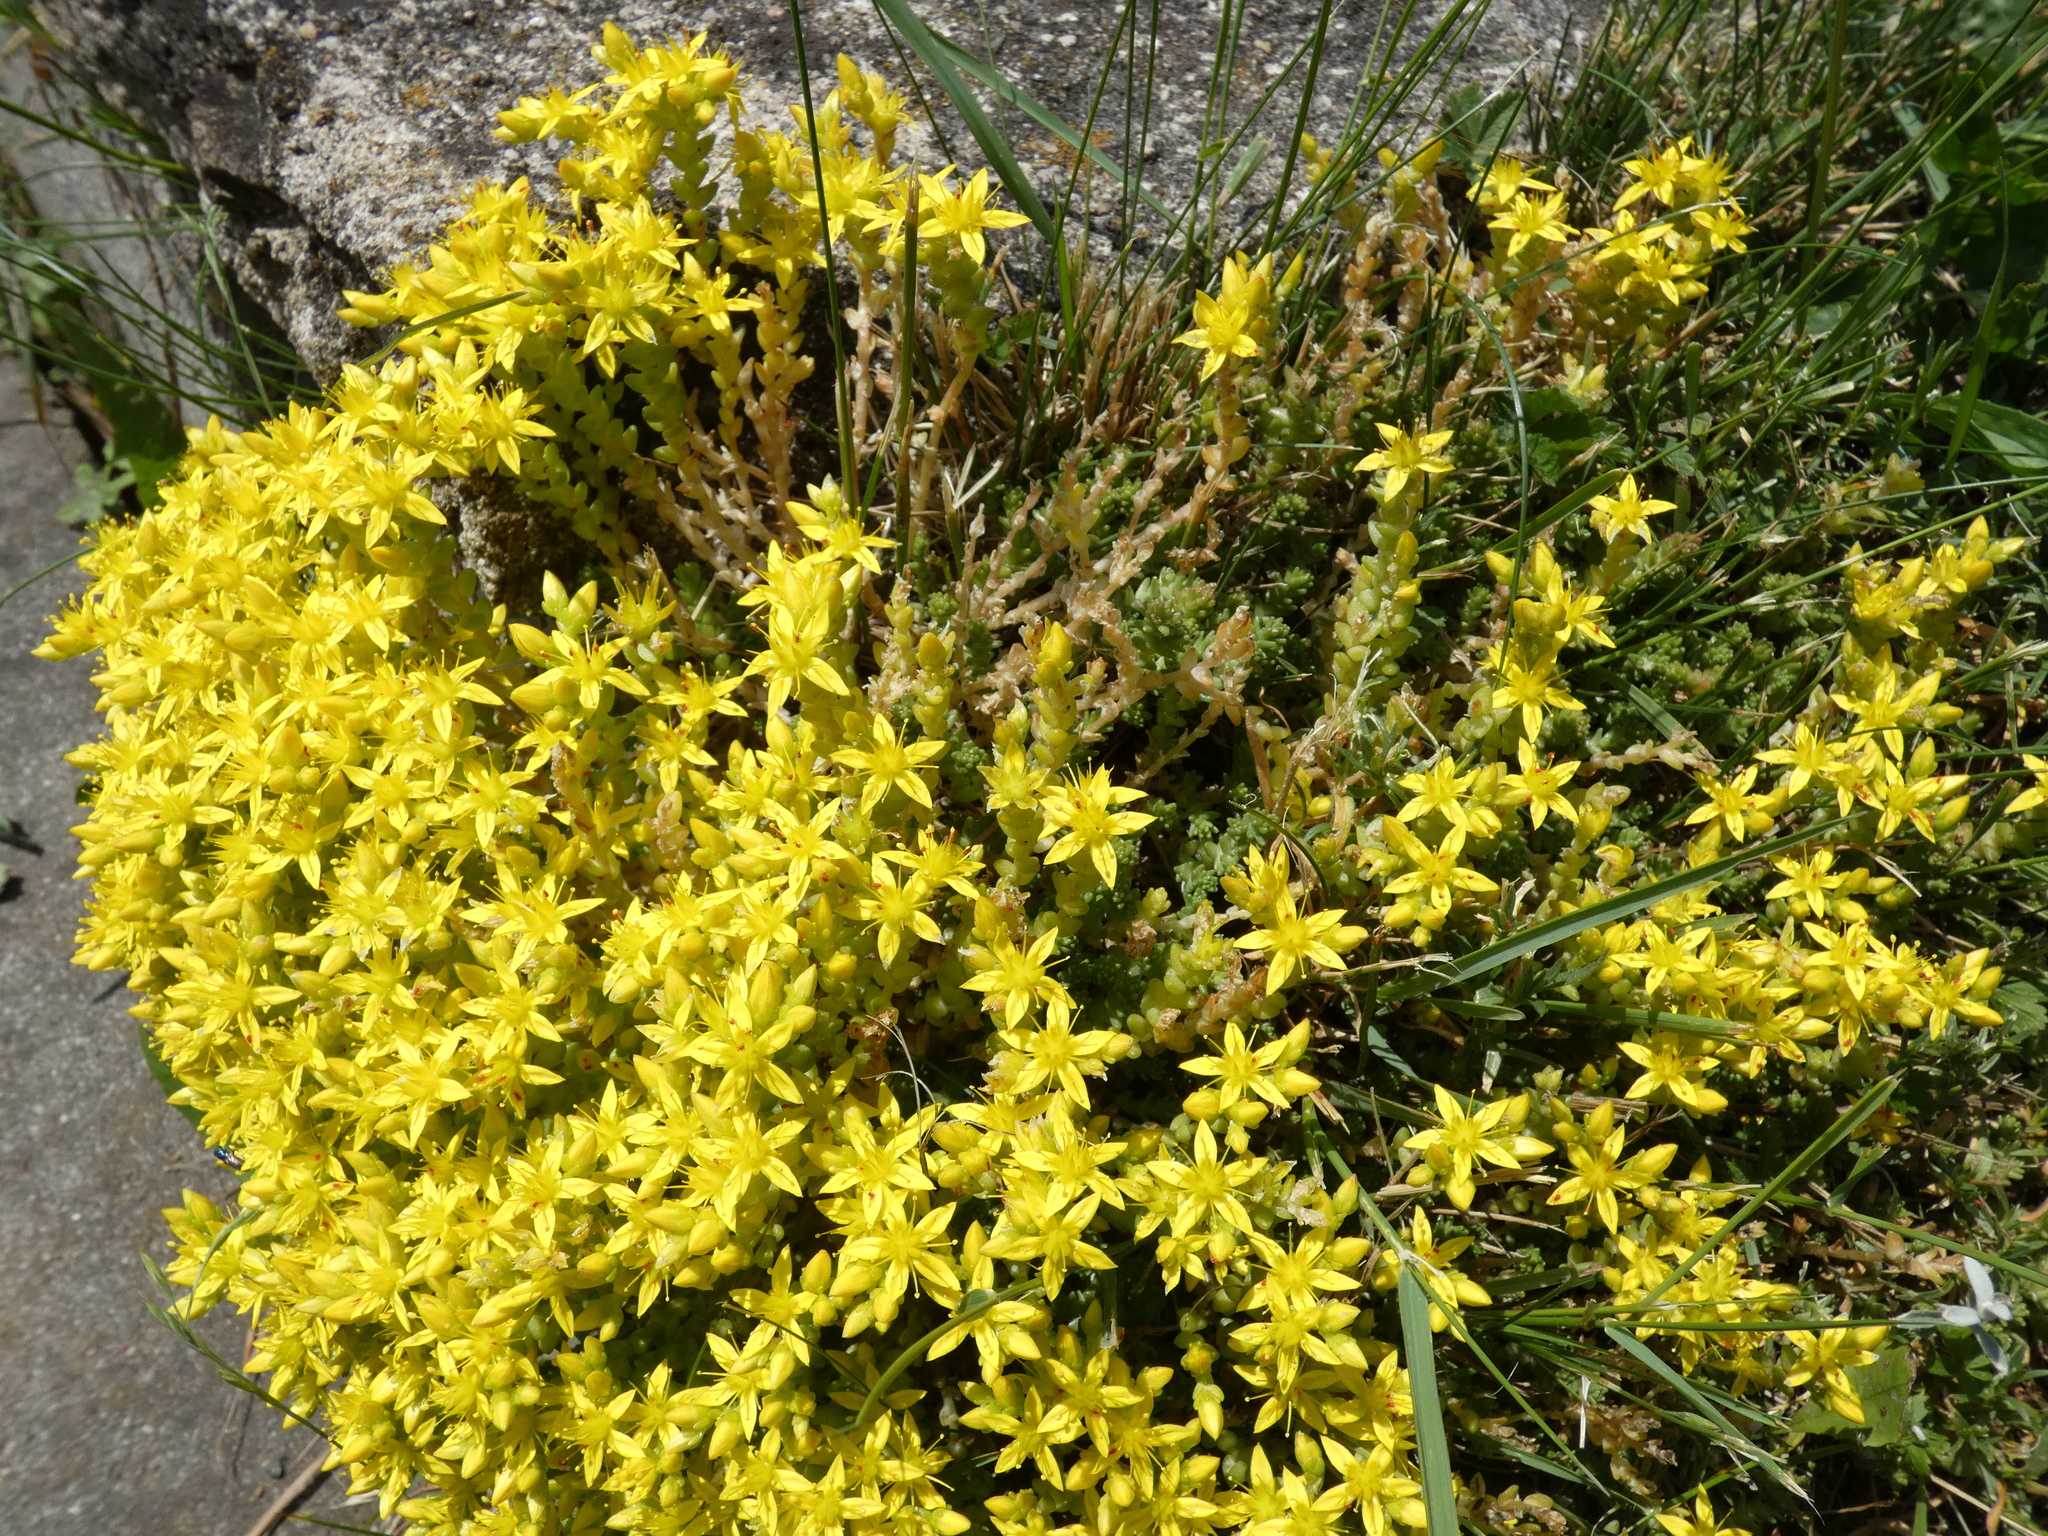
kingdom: Plantae
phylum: Tracheophyta
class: Magnoliopsida
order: Saxifragales
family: Crassulaceae
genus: Sedum
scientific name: Sedum acre
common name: Biting stonecrop
